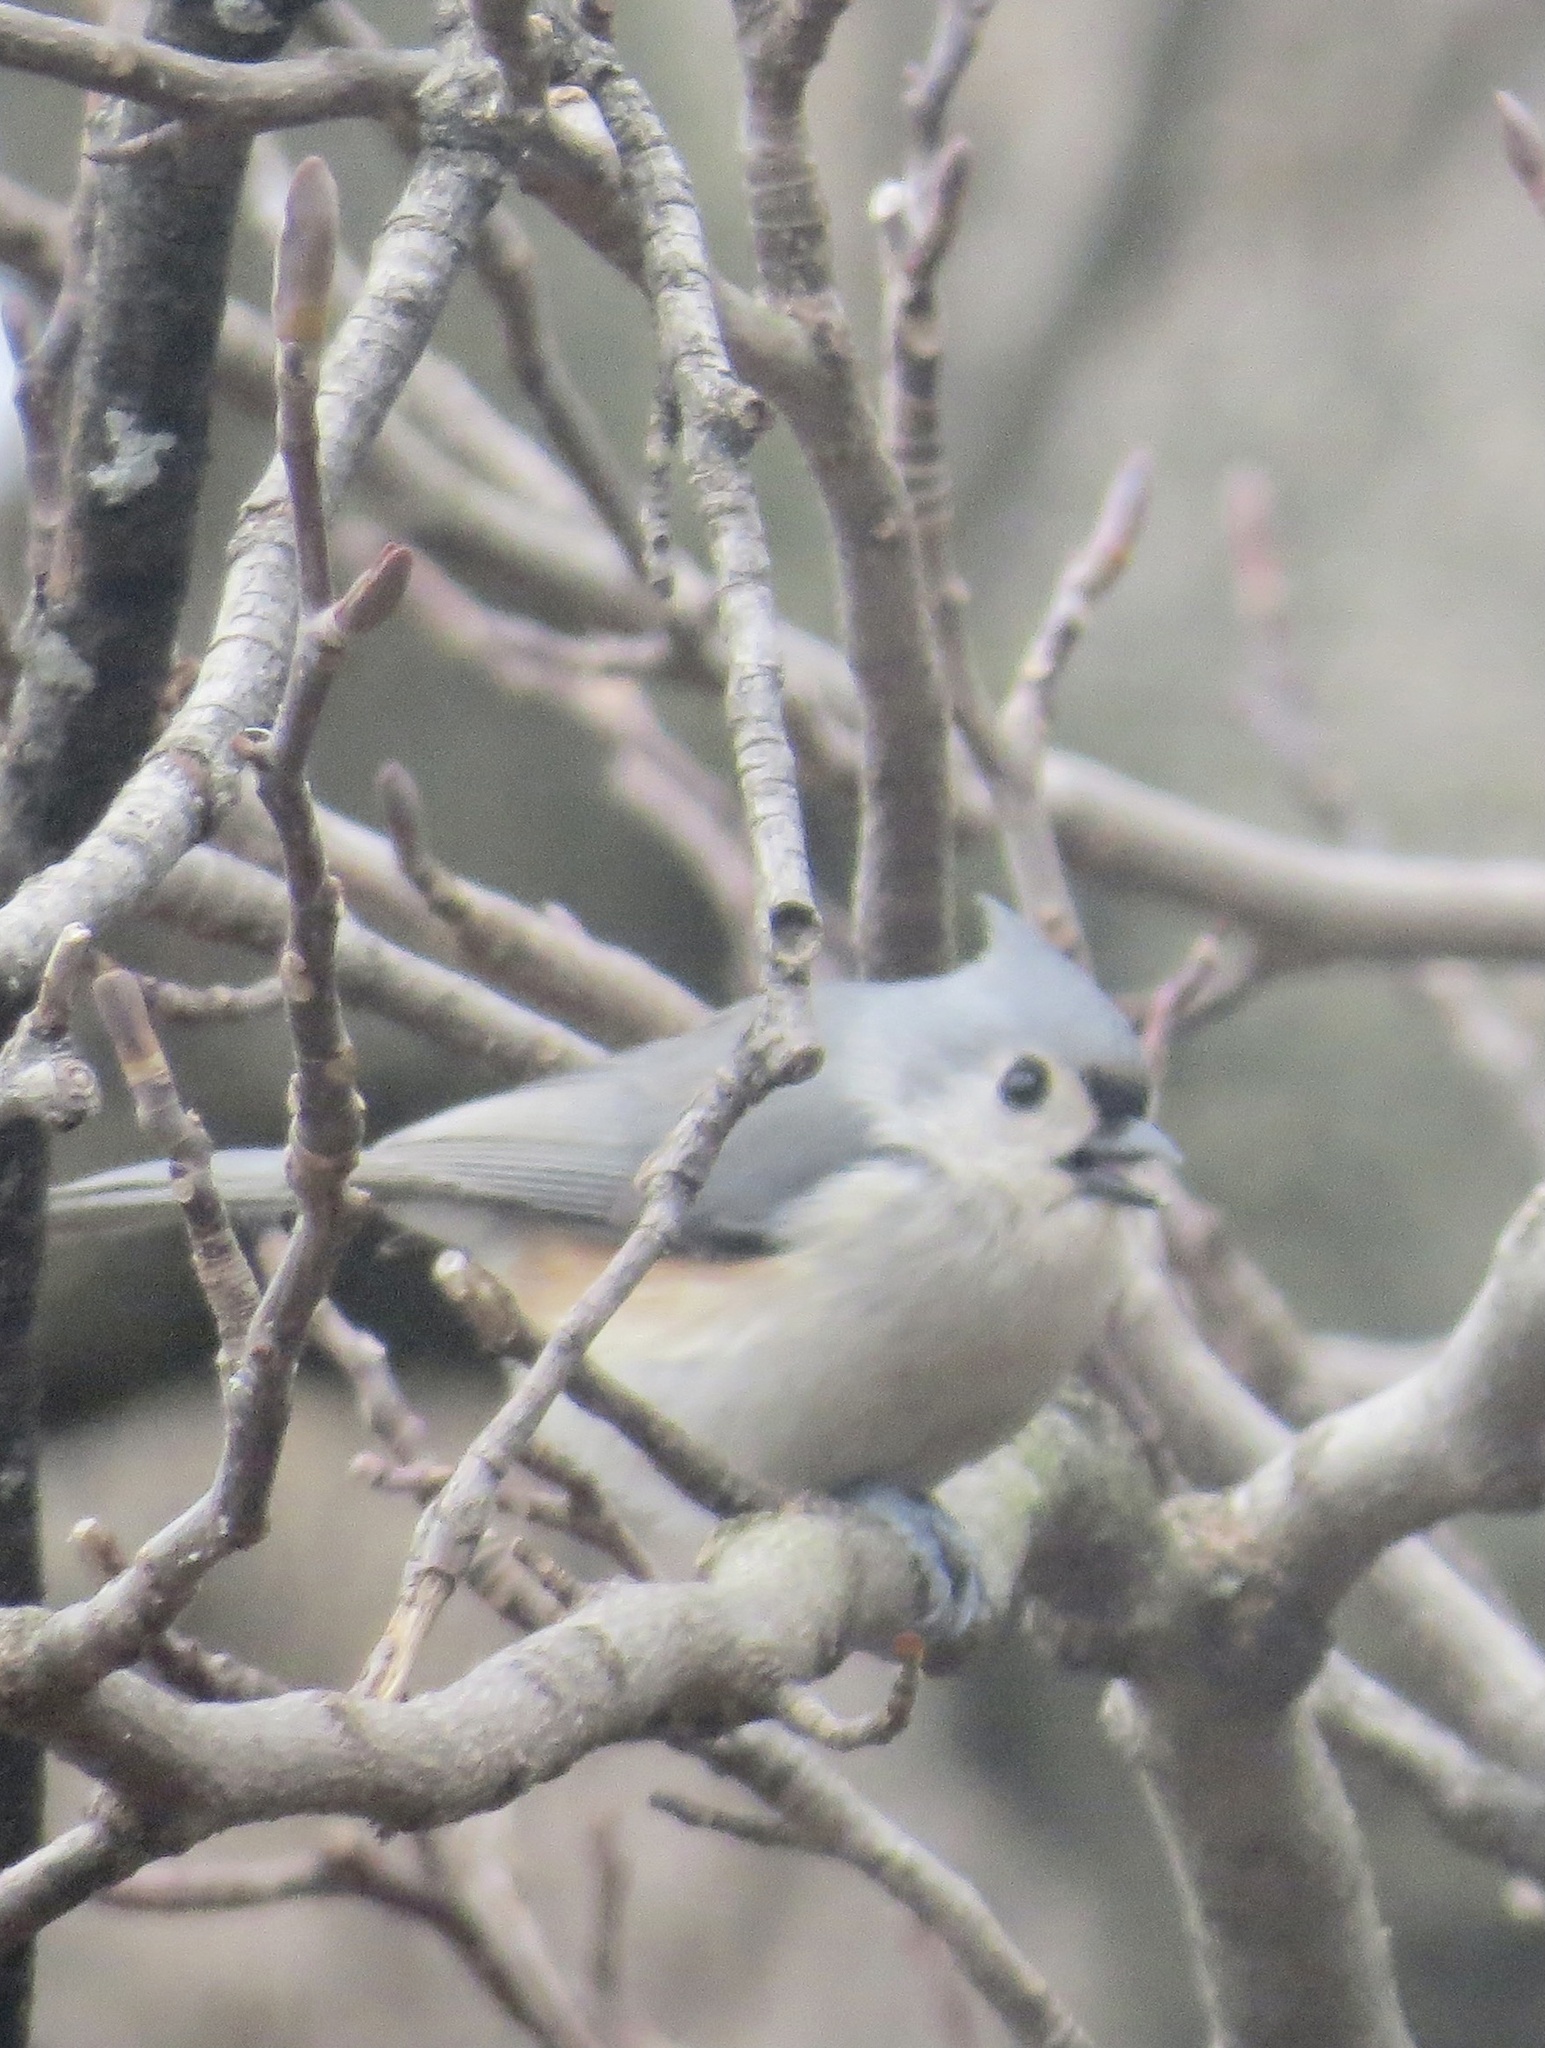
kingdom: Animalia
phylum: Chordata
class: Aves
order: Passeriformes
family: Paridae
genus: Baeolophus
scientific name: Baeolophus bicolor
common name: Tufted titmouse
